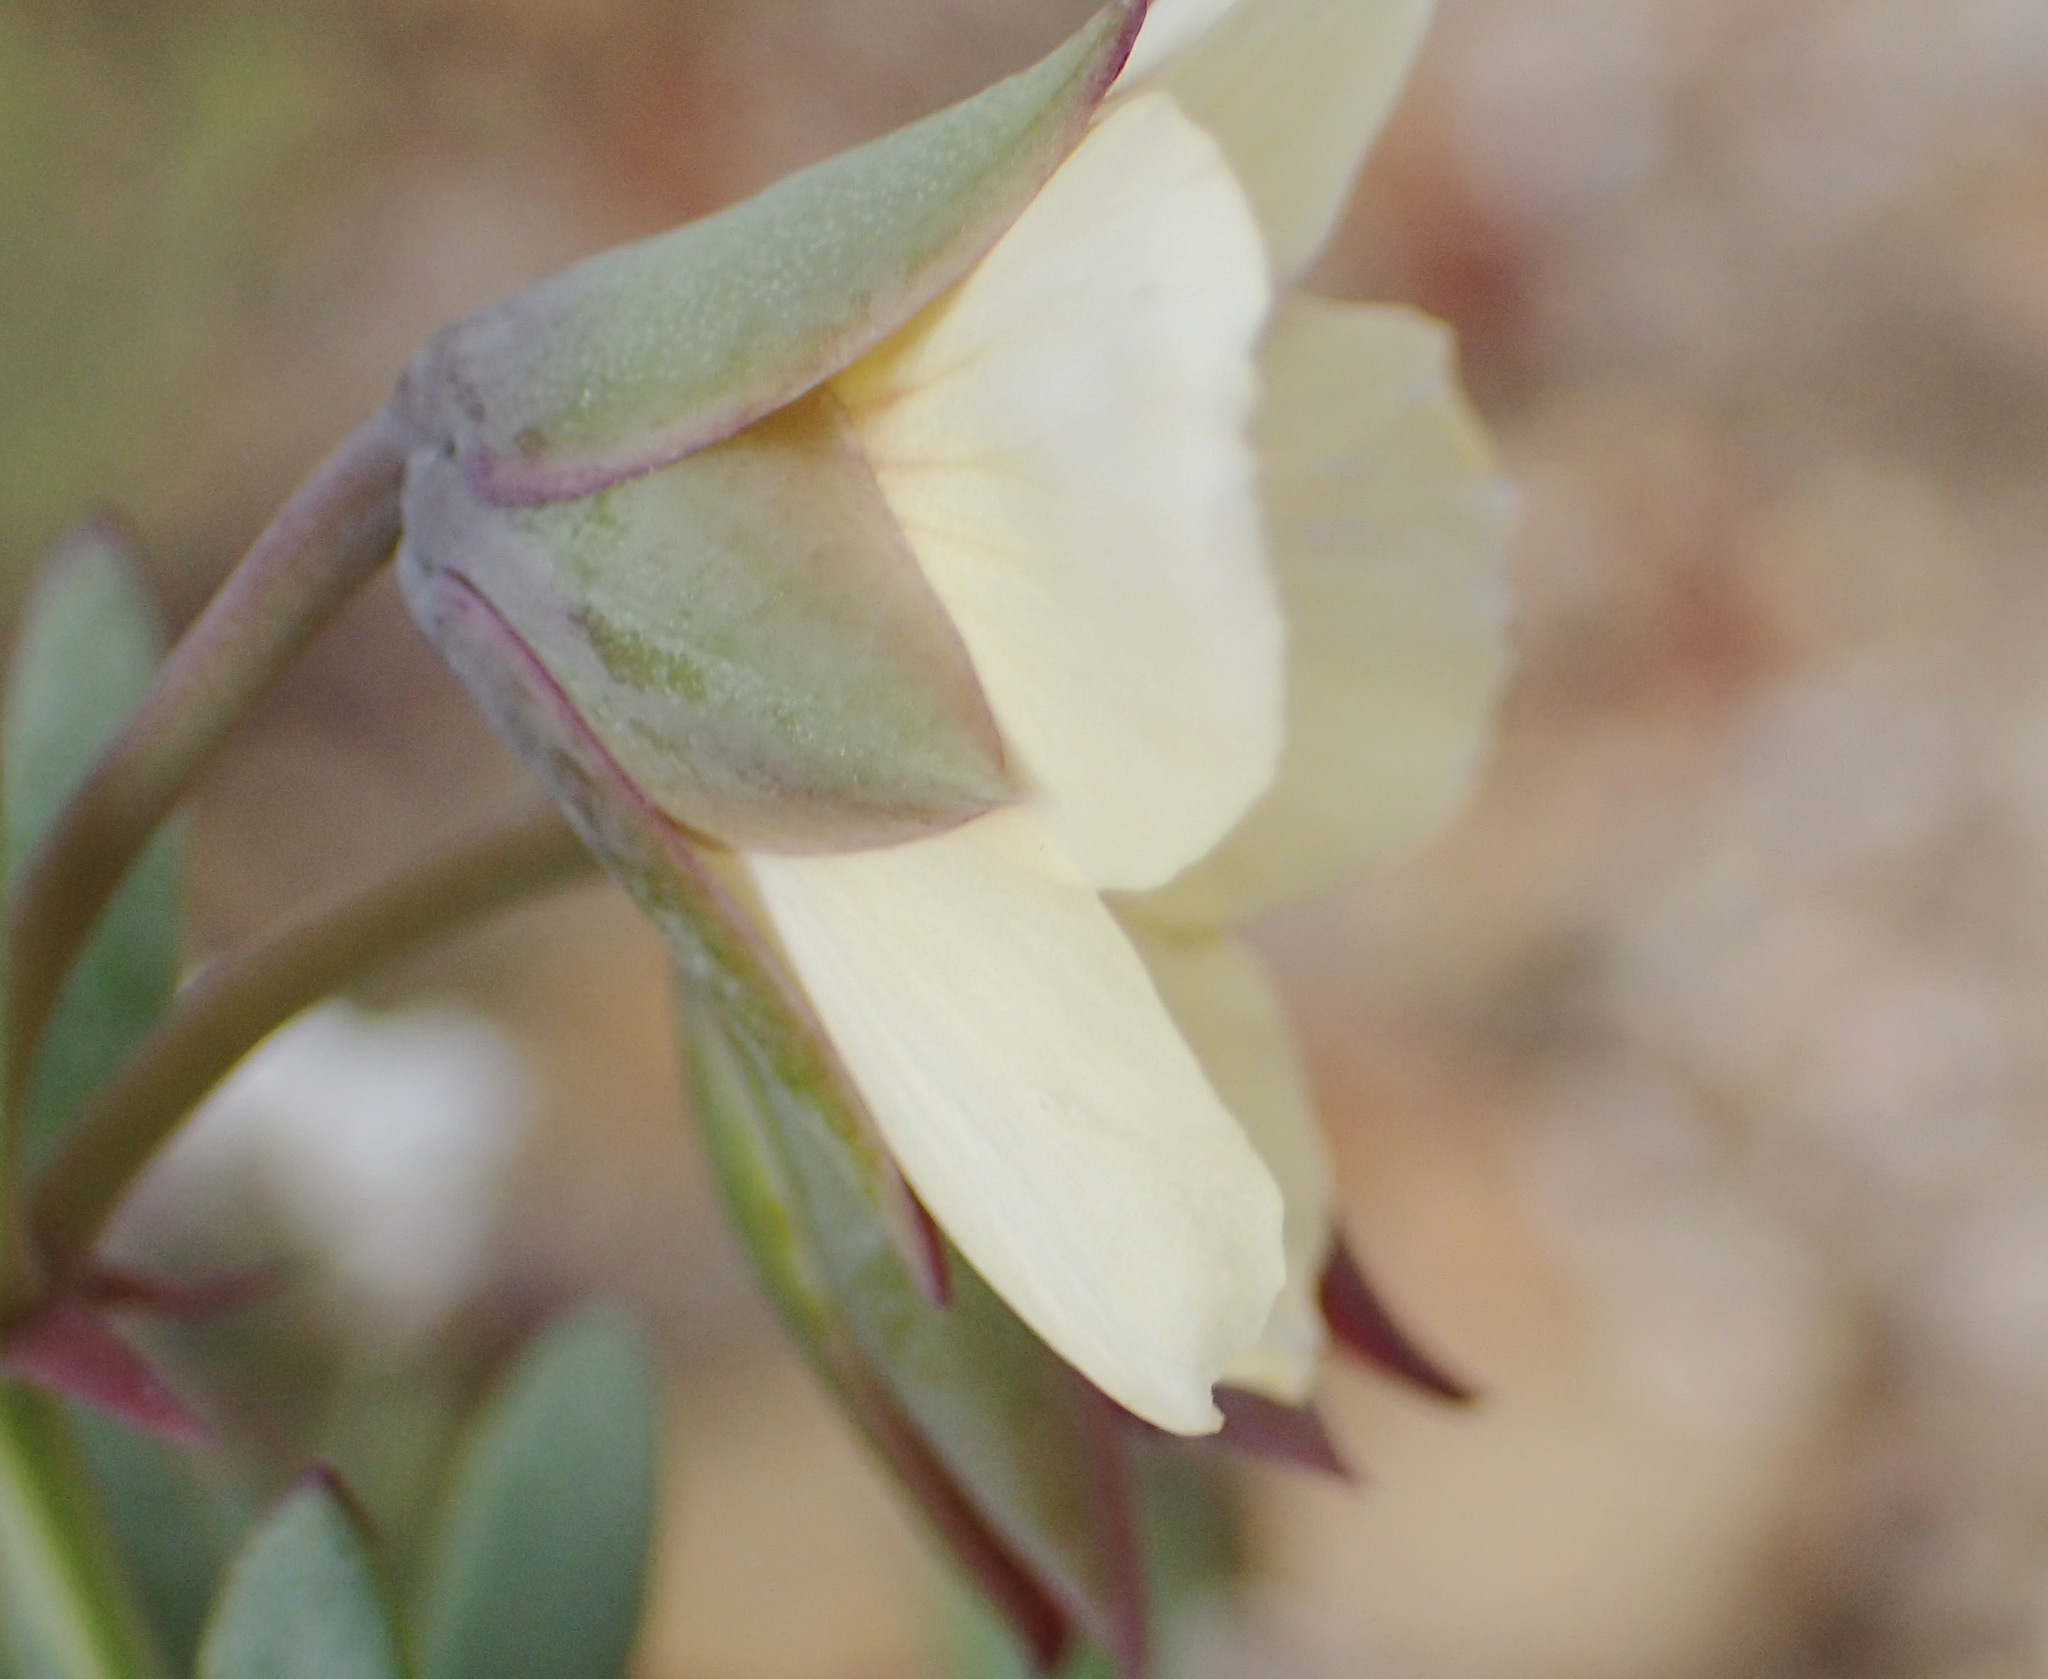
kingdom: Plantae
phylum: Tracheophyta
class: Magnoliopsida
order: Zygophyllales
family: Zygophyllaceae
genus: Roepera
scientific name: Roepera fulva
